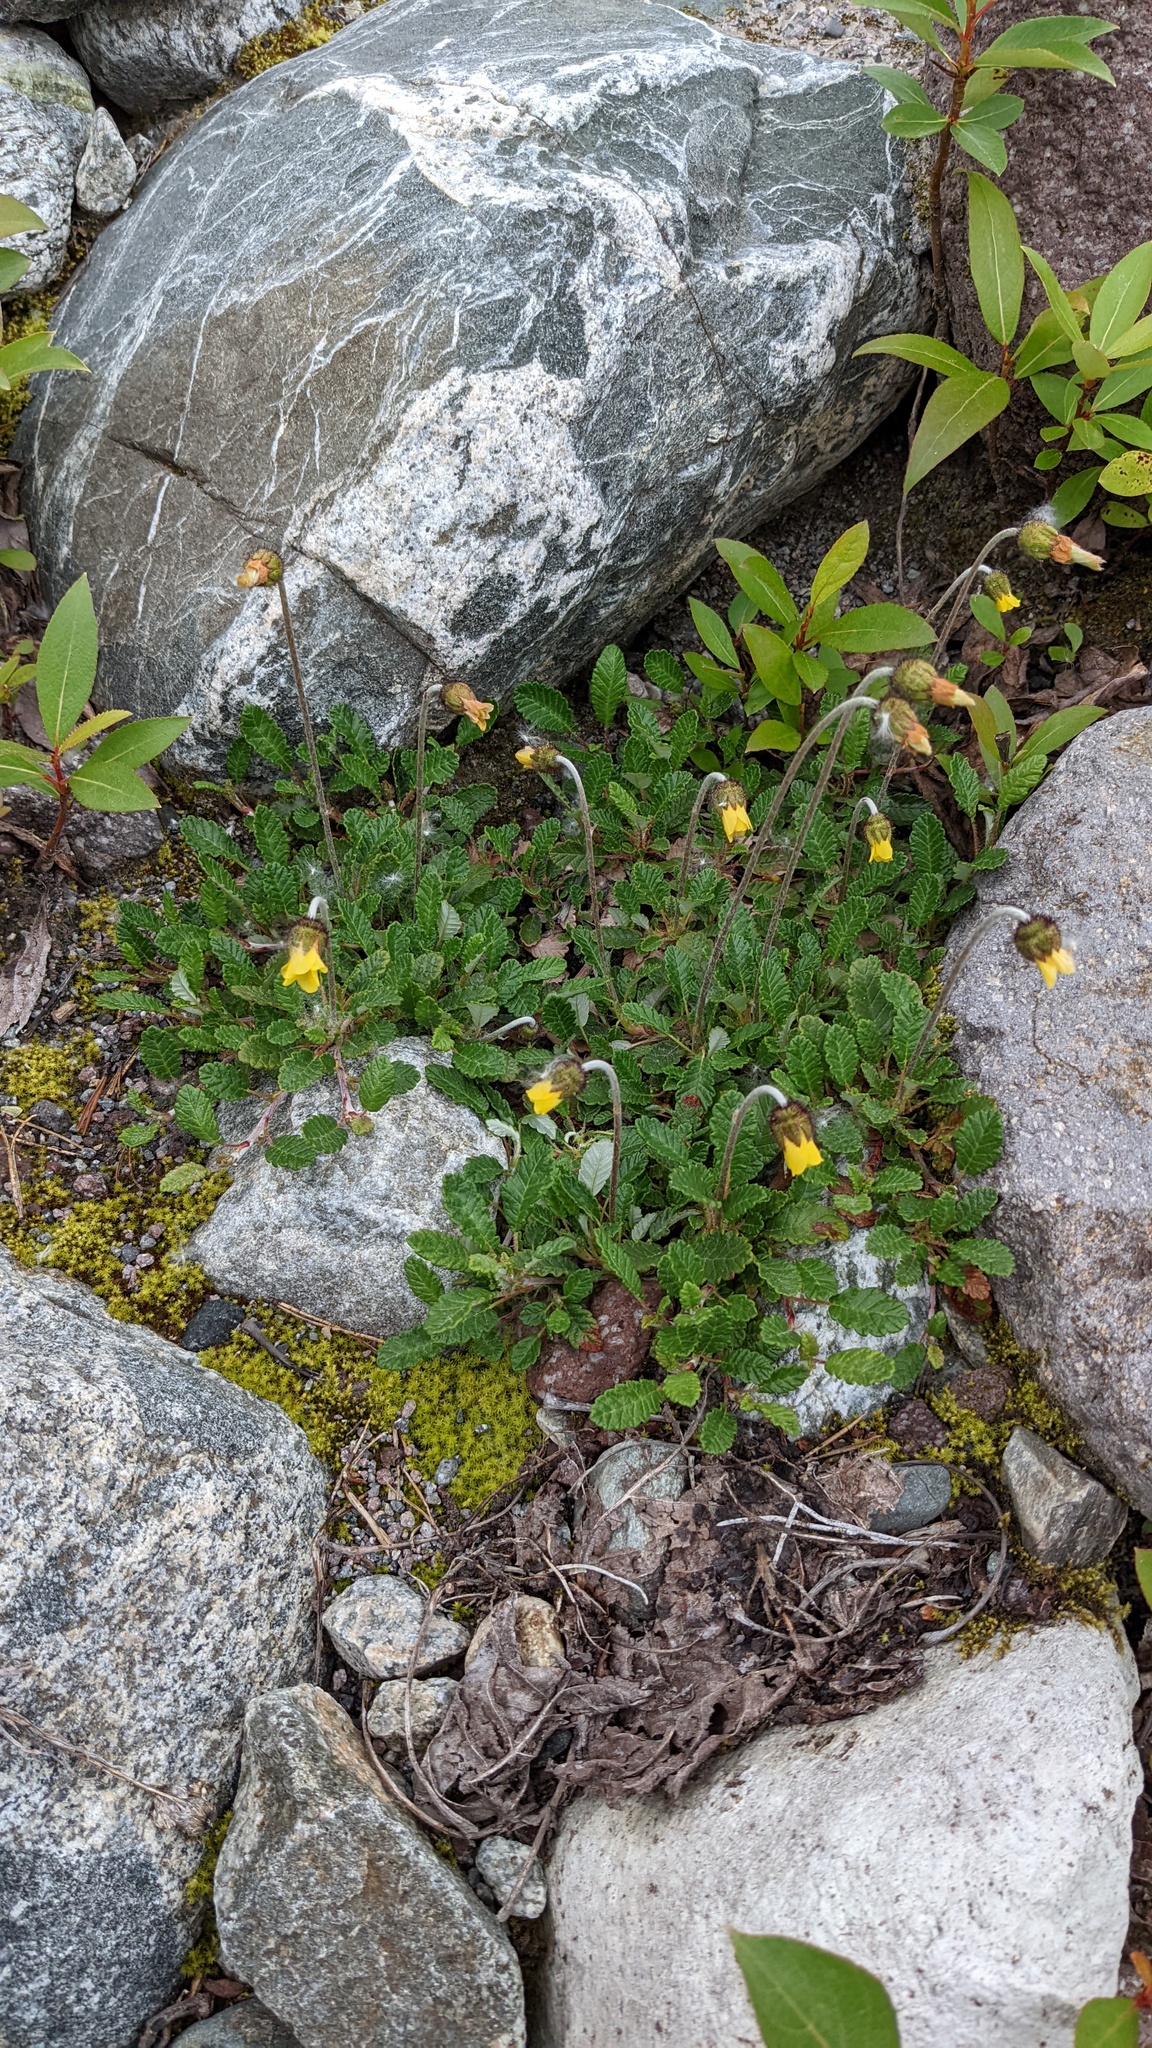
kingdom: Plantae
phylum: Tracheophyta
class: Magnoliopsida
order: Rosales
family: Rosaceae
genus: Dryas
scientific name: Dryas drummondii
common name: Drummond's dryad
